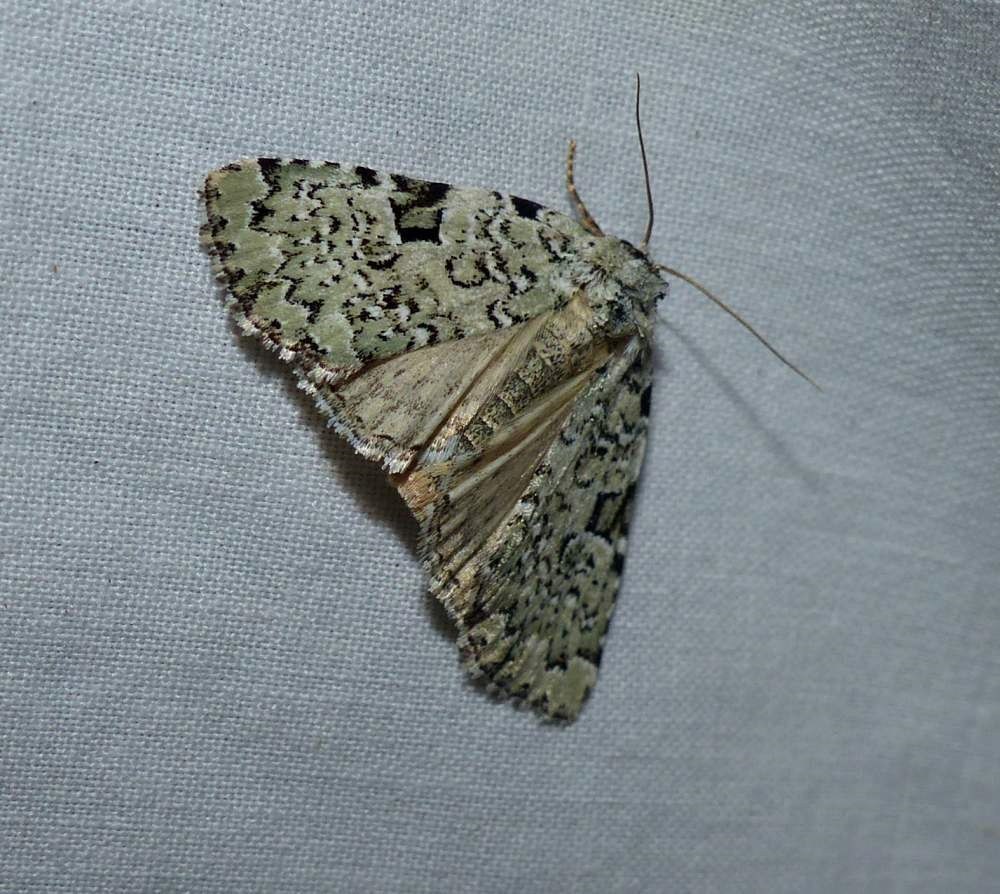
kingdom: Animalia
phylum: Arthropoda
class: Insecta
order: Lepidoptera
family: Noctuidae
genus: Leuconycta
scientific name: Leuconycta diphteroides
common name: Green leuconycta moth
